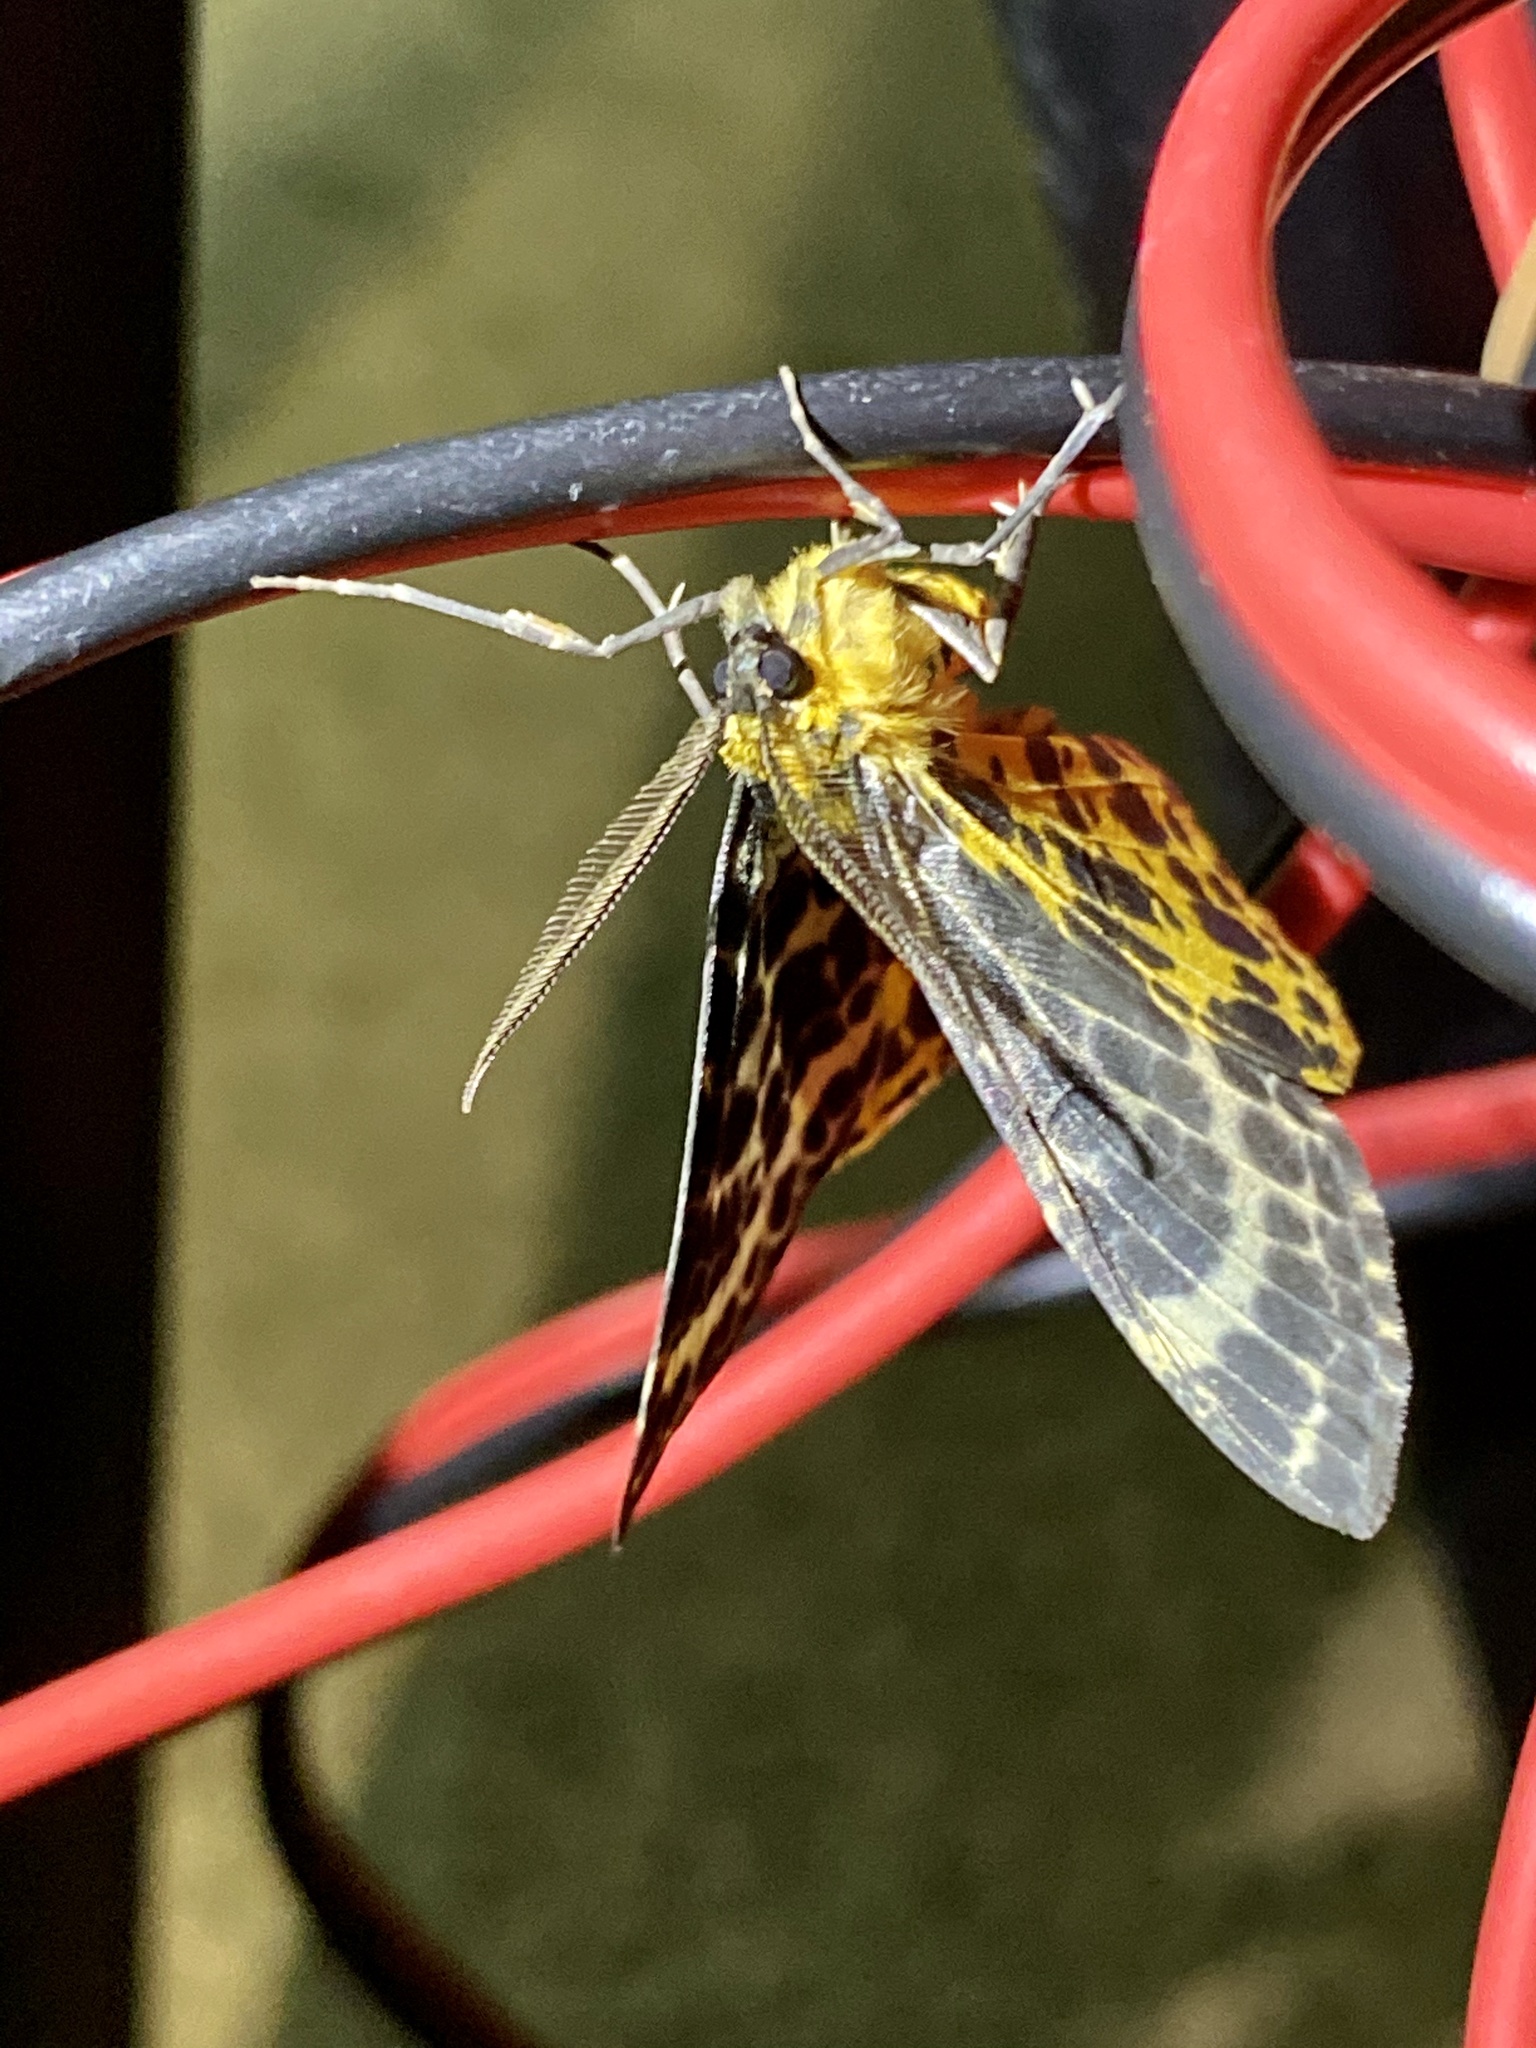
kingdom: Animalia
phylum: Arthropoda
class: Insecta
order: Lepidoptera
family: Geometridae
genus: Arichanna
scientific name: Arichanna melanaria
